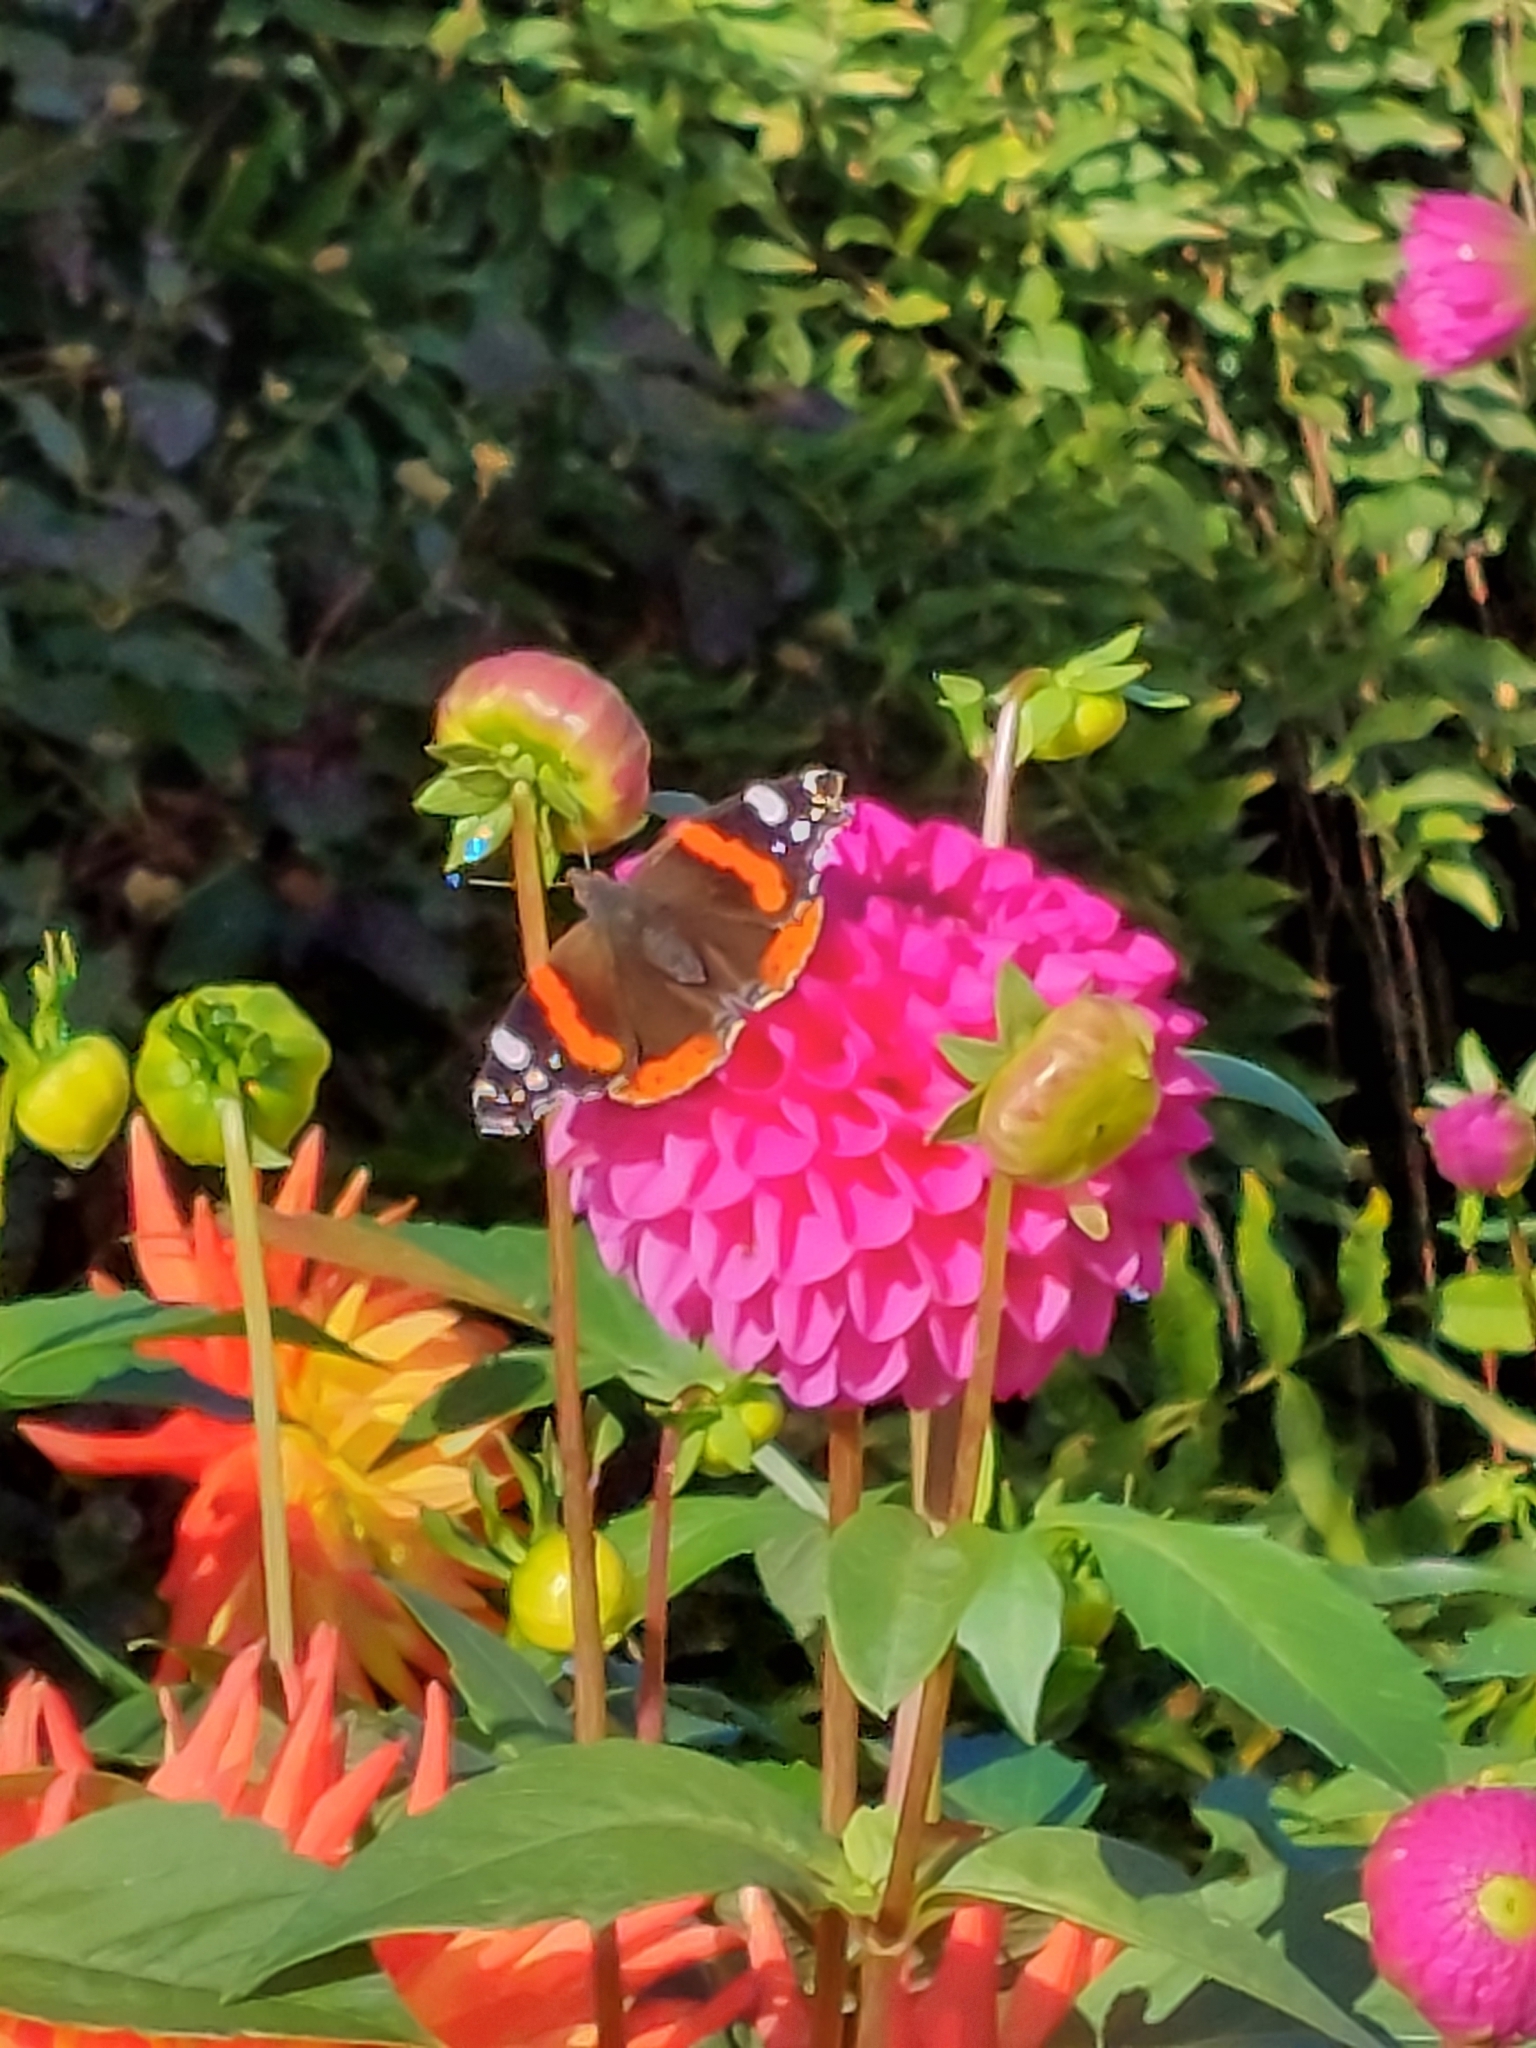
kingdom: Animalia
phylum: Arthropoda
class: Insecta
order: Lepidoptera
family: Nymphalidae
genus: Vanessa
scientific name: Vanessa atalanta
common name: Red admiral
